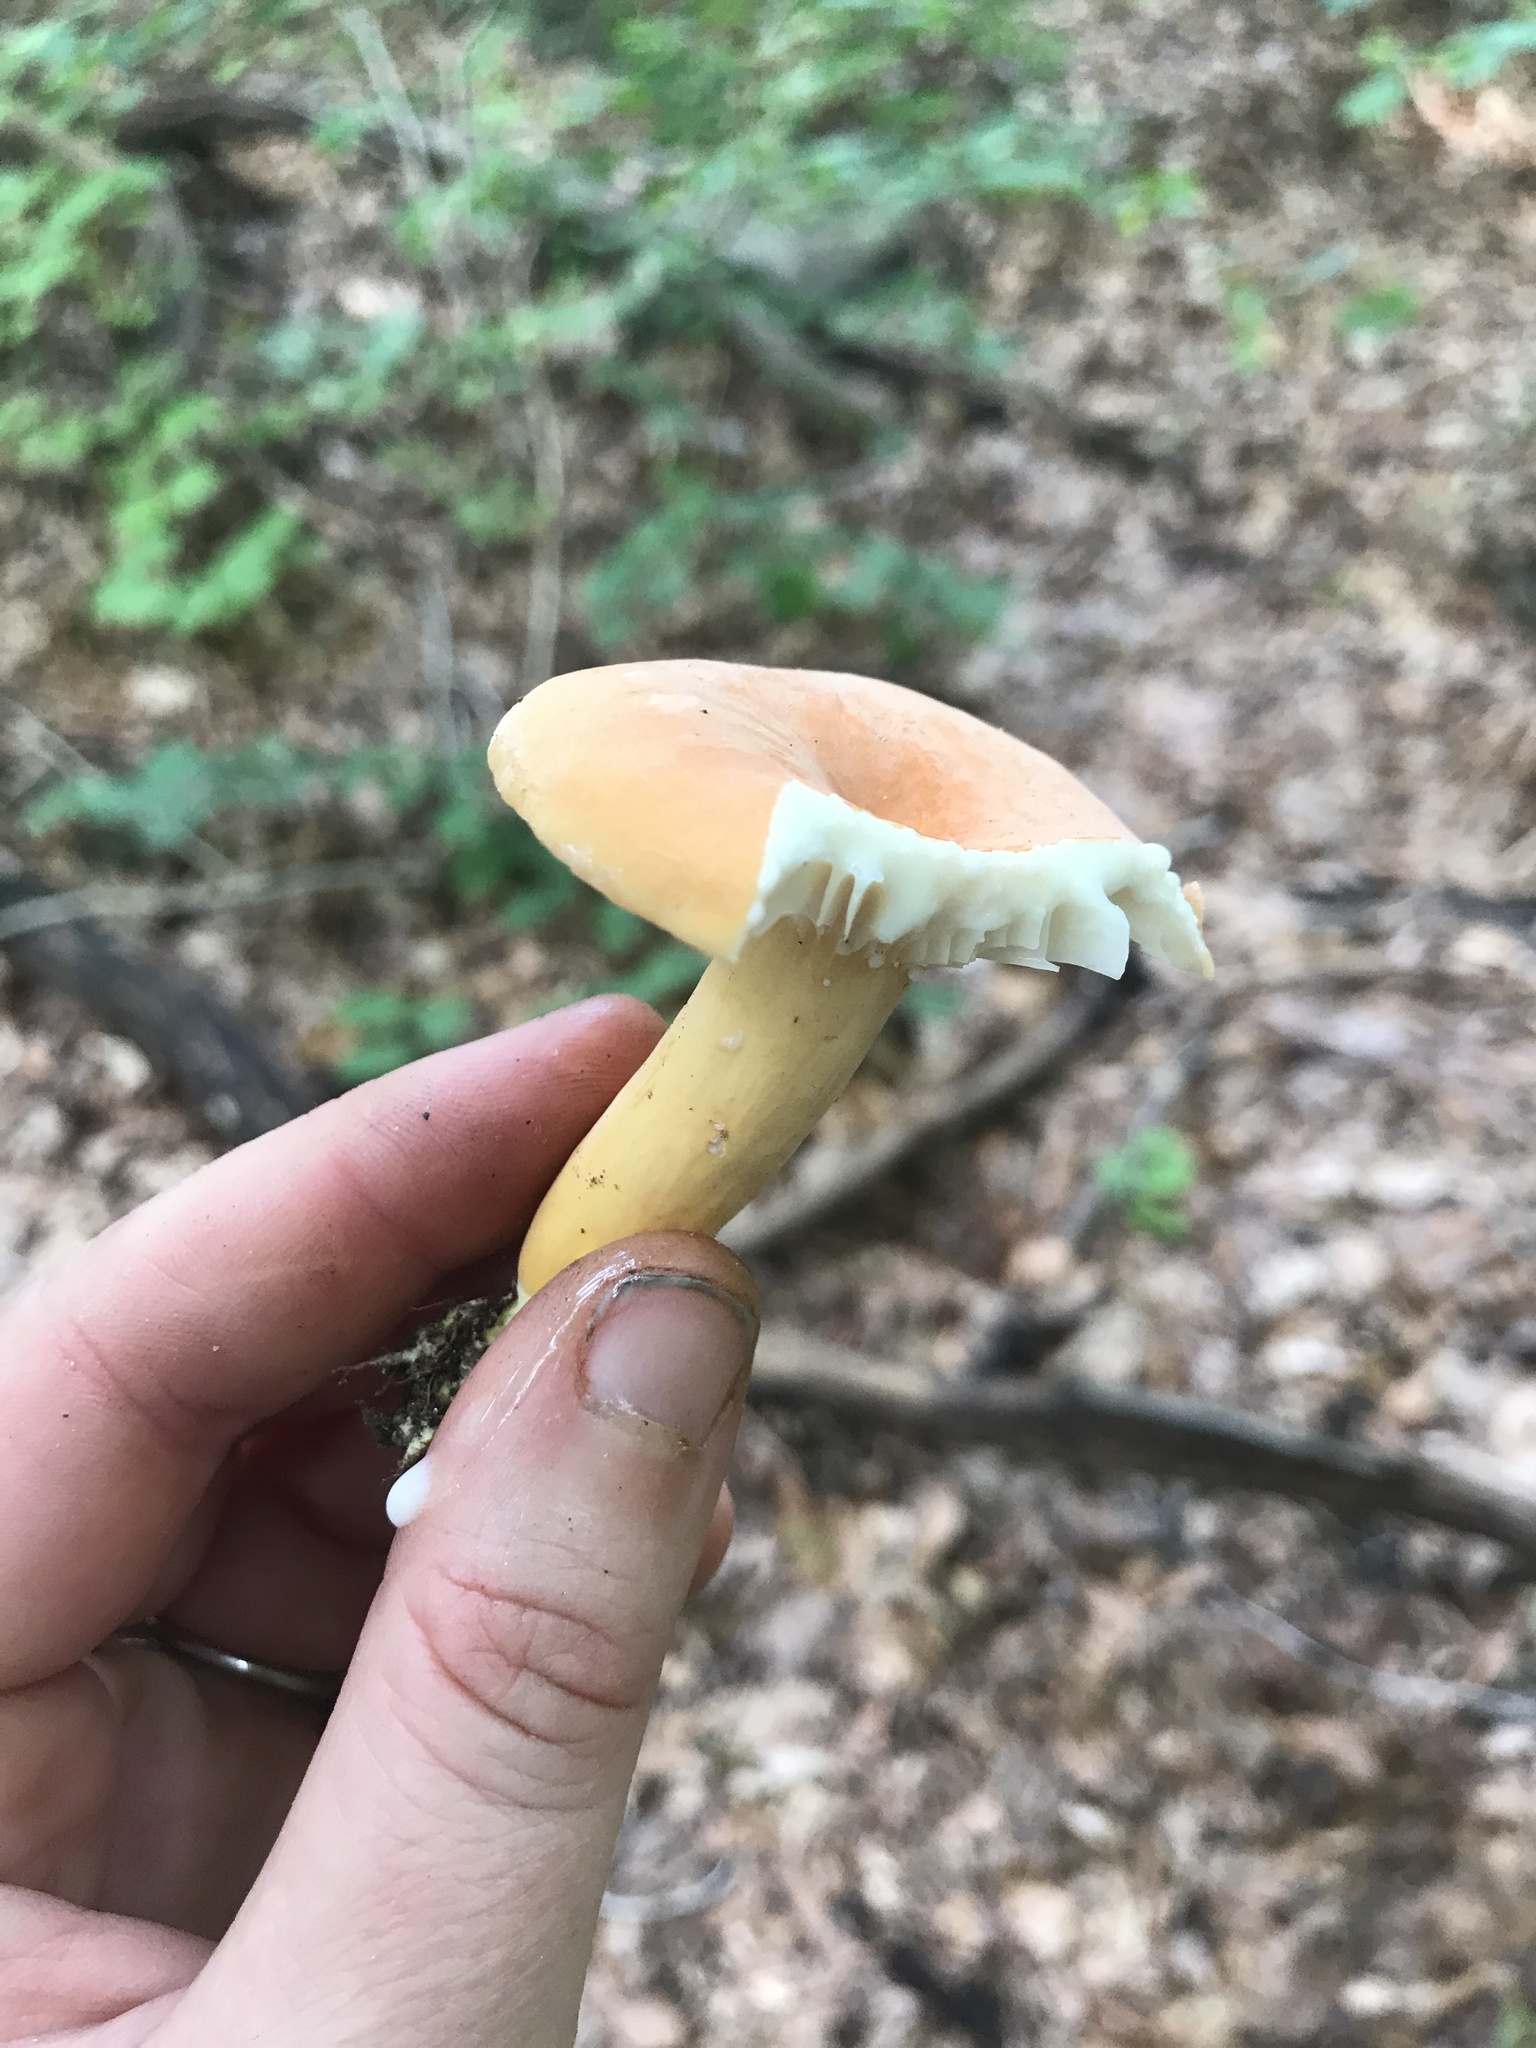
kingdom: Fungi
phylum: Basidiomycota
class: Agaricomycetes
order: Russulales
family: Russulaceae
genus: Lactarius
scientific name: Lactarius hygrophoroides
